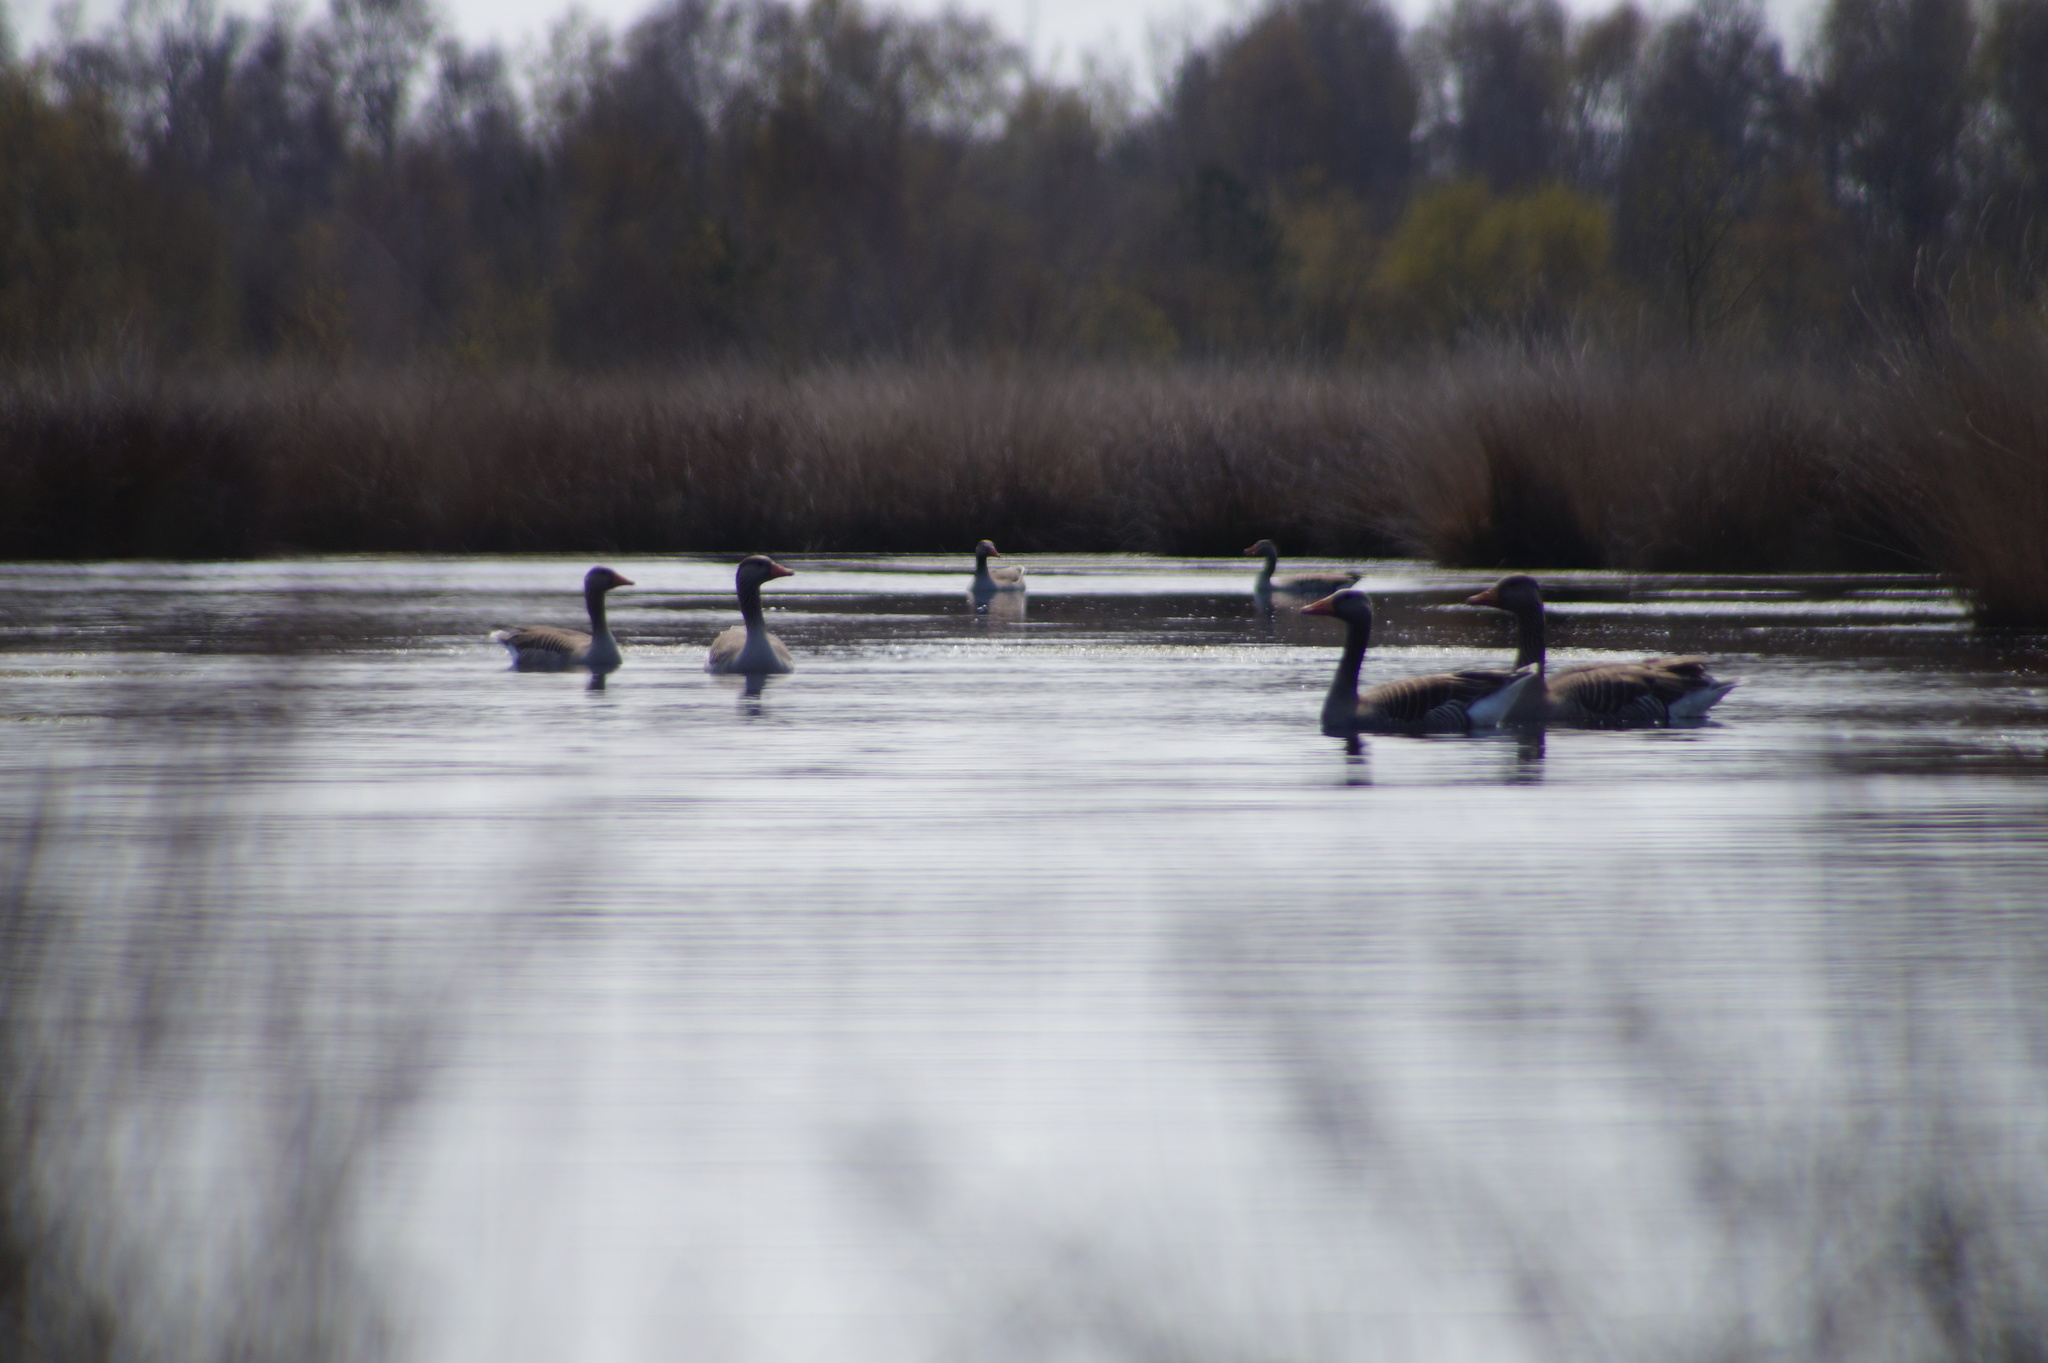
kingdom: Animalia
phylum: Chordata
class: Aves
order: Anseriformes
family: Anatidae
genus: Anser
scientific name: Anser anser
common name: Greylag goose
